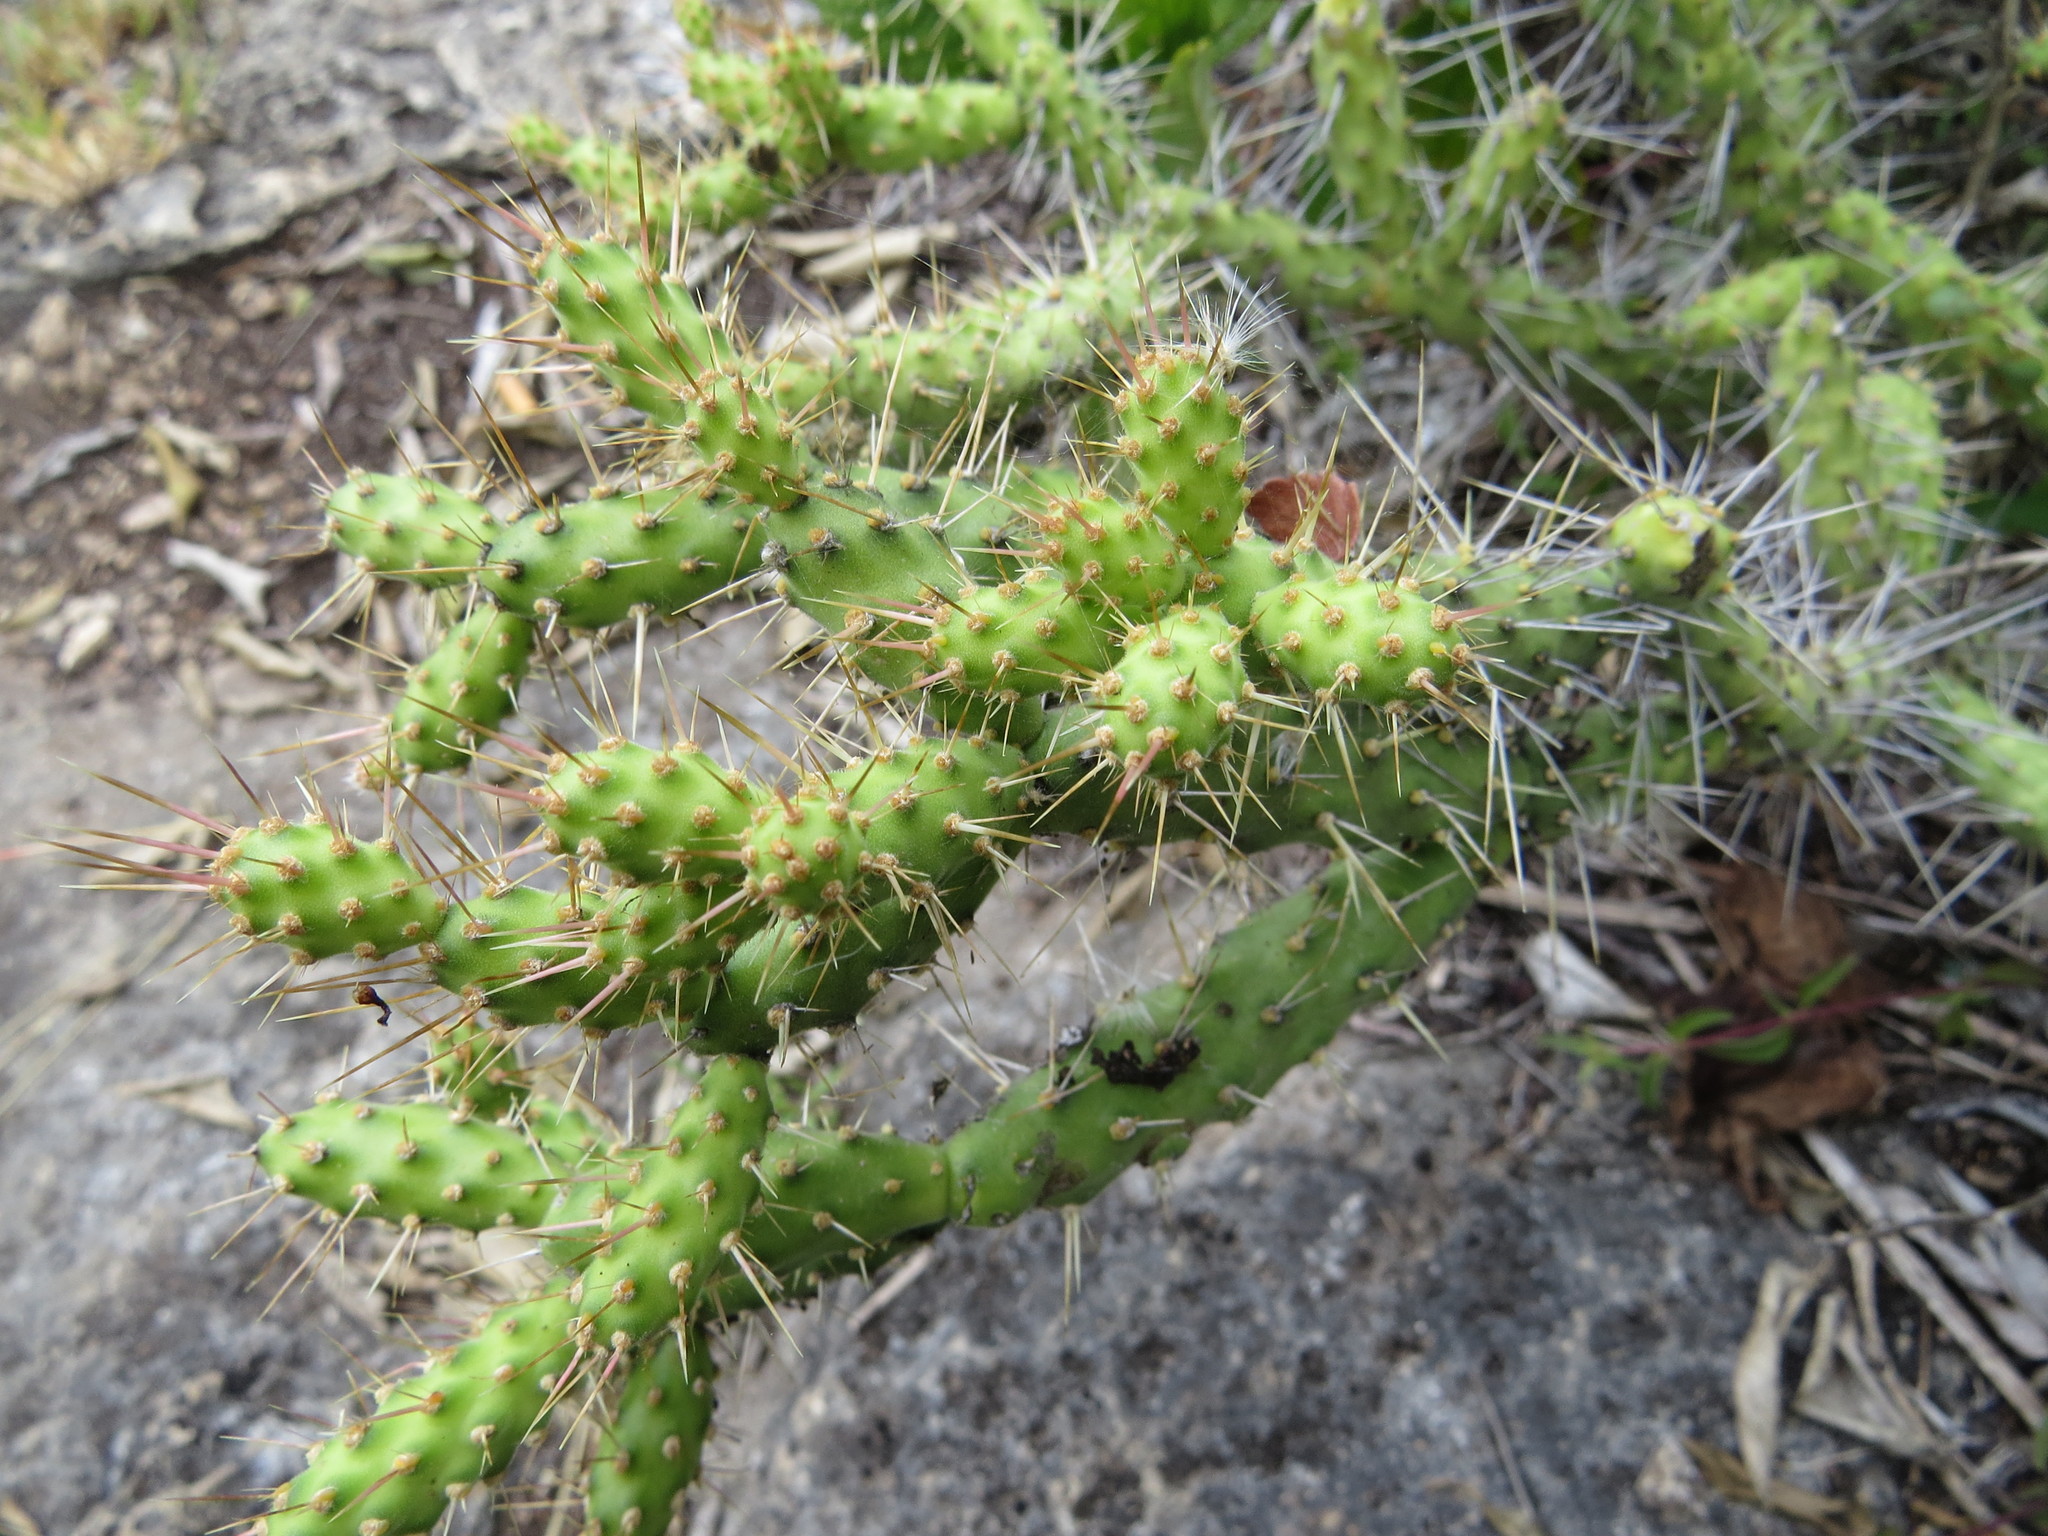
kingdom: Plantae
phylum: Tracheophyta
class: Magnoliopsida
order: Caryophyllales
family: Cactaceae
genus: Opuntia
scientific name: Opuntia
